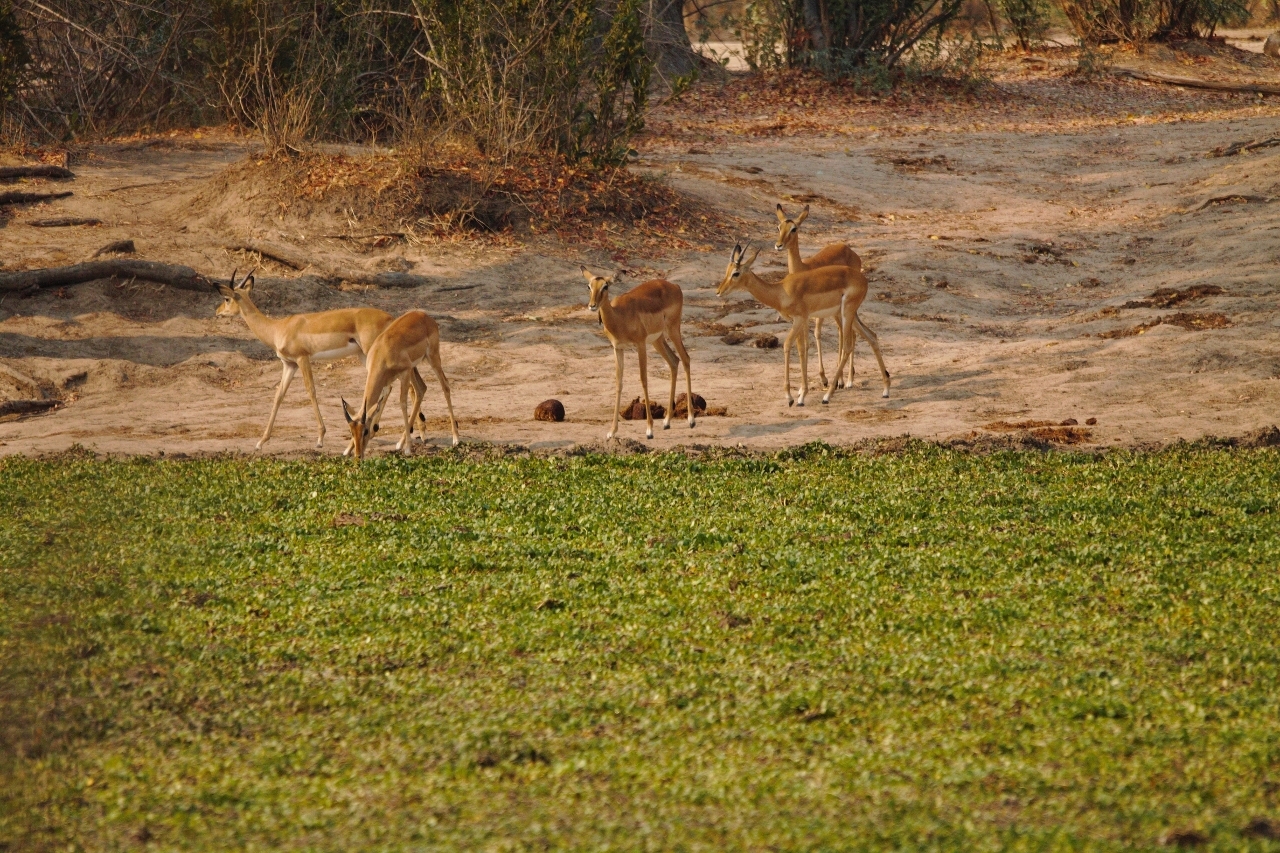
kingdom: Animalia
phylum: Chordata
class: Mammalia
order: Artiodactyla
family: Bovidae
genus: Aepyceros
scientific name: Aepyceros melampus
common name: Impala
